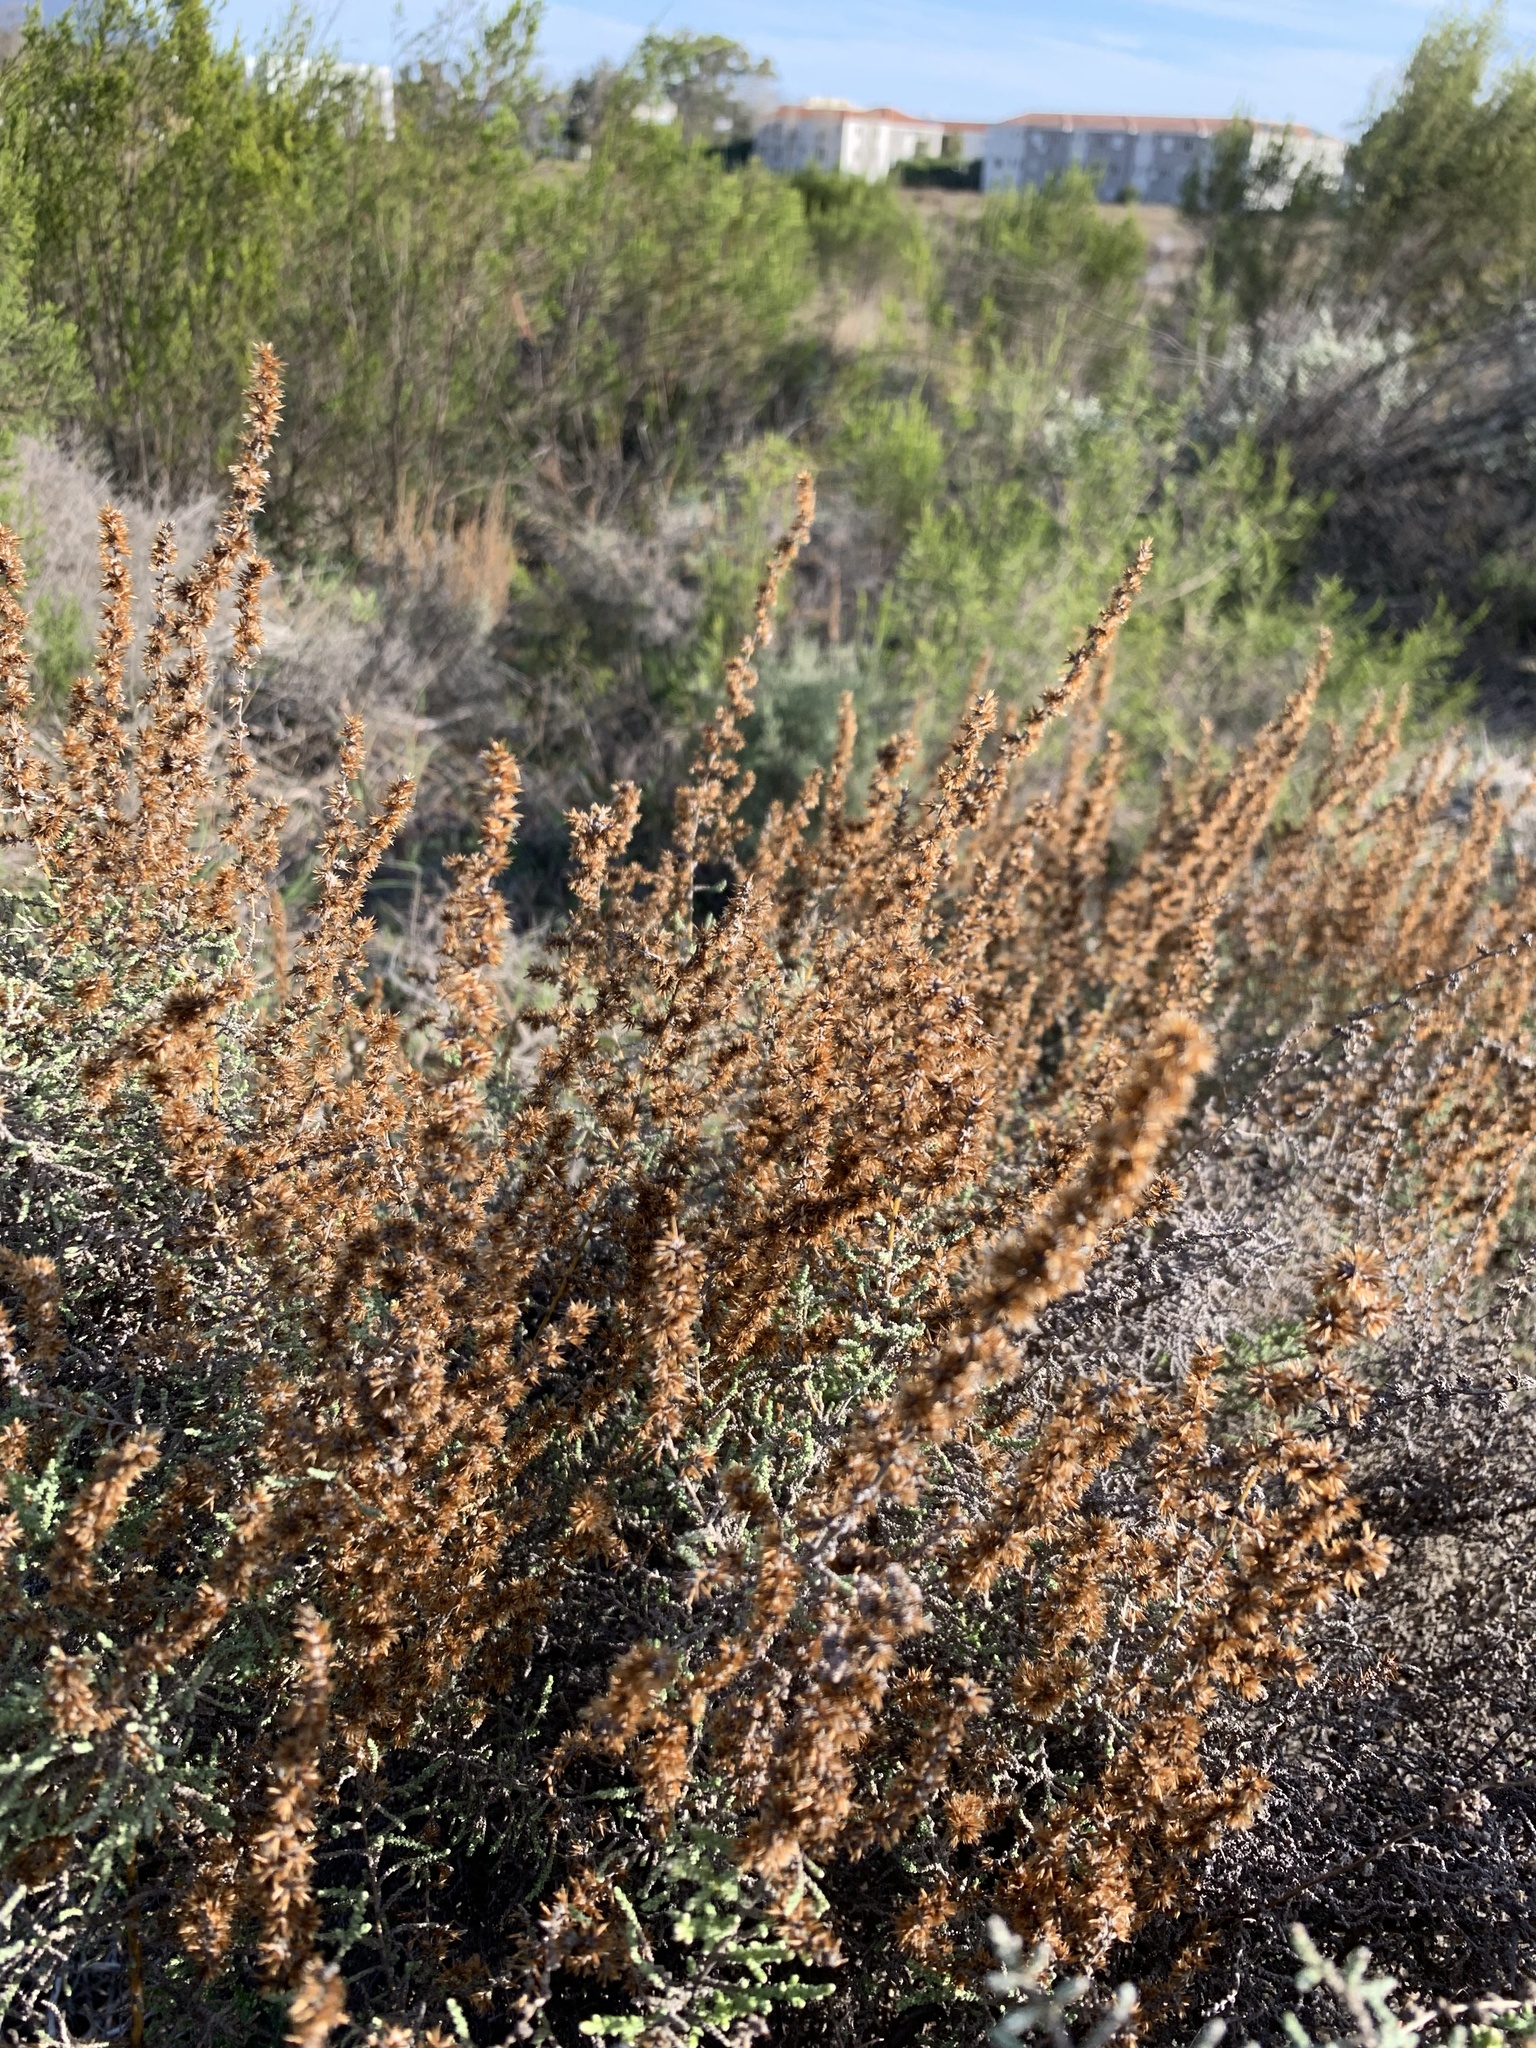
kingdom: Plantae
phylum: Tracheophyta
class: Magnoliopsida
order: Asterales
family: Asteraceae
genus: Seriphium
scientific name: Seriphium plumosum
